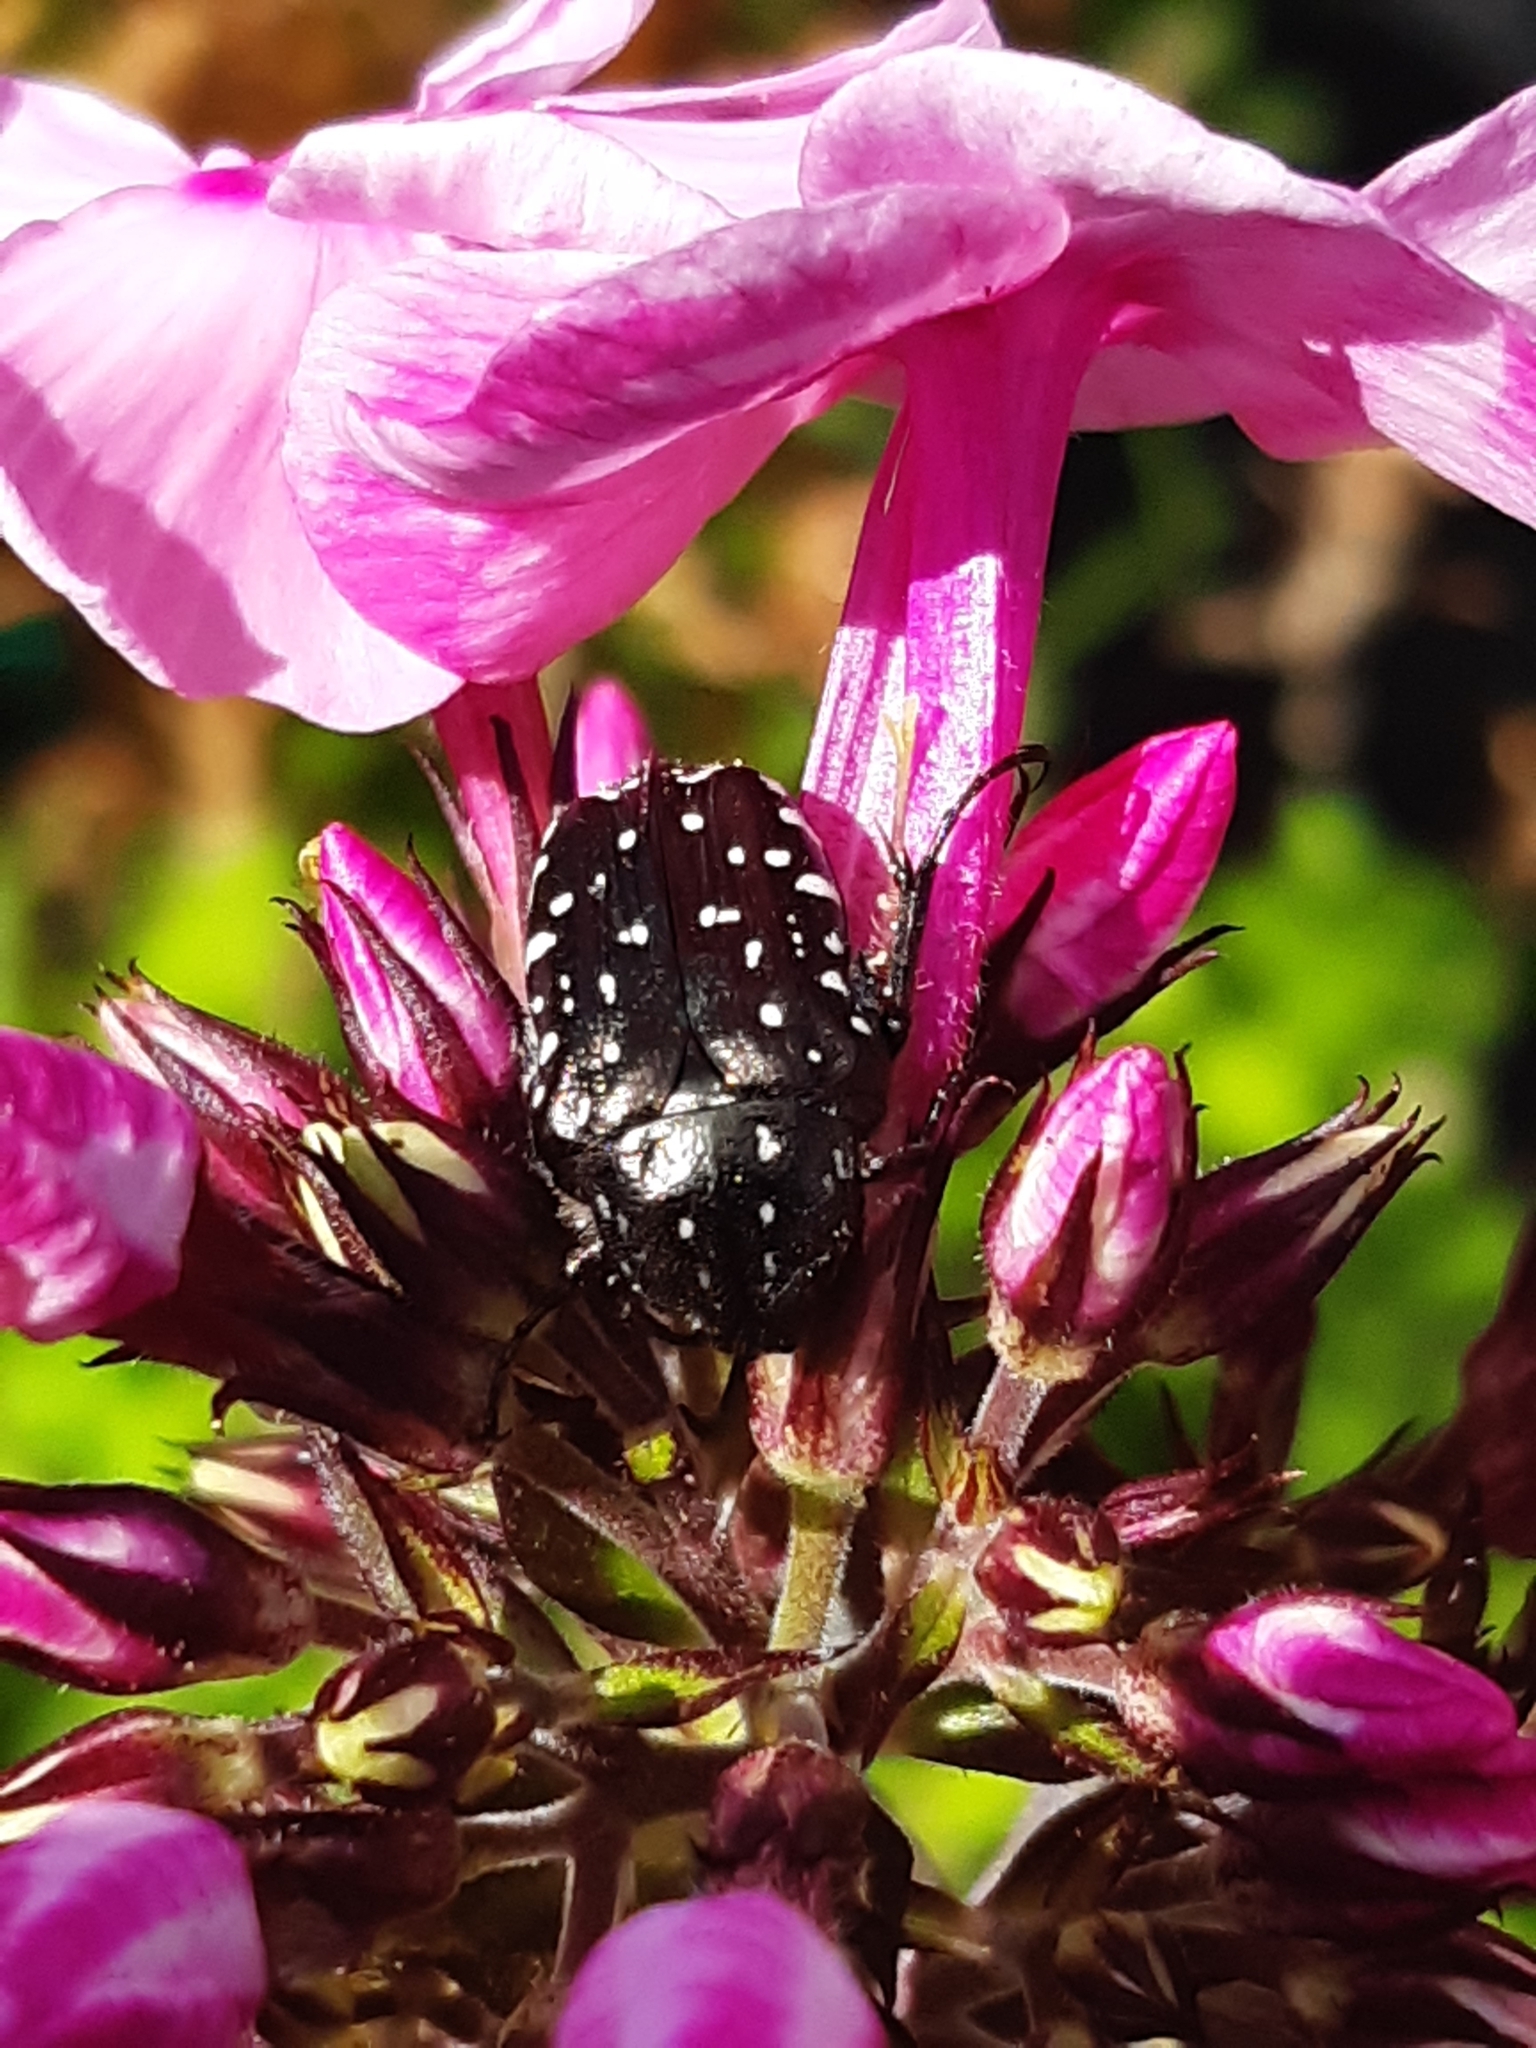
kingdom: Animalia
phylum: Arthropoda
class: Insecta
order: Coleoptera
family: Scarabaeidae
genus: Oxythyrea
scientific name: Oxythyrea funesta
